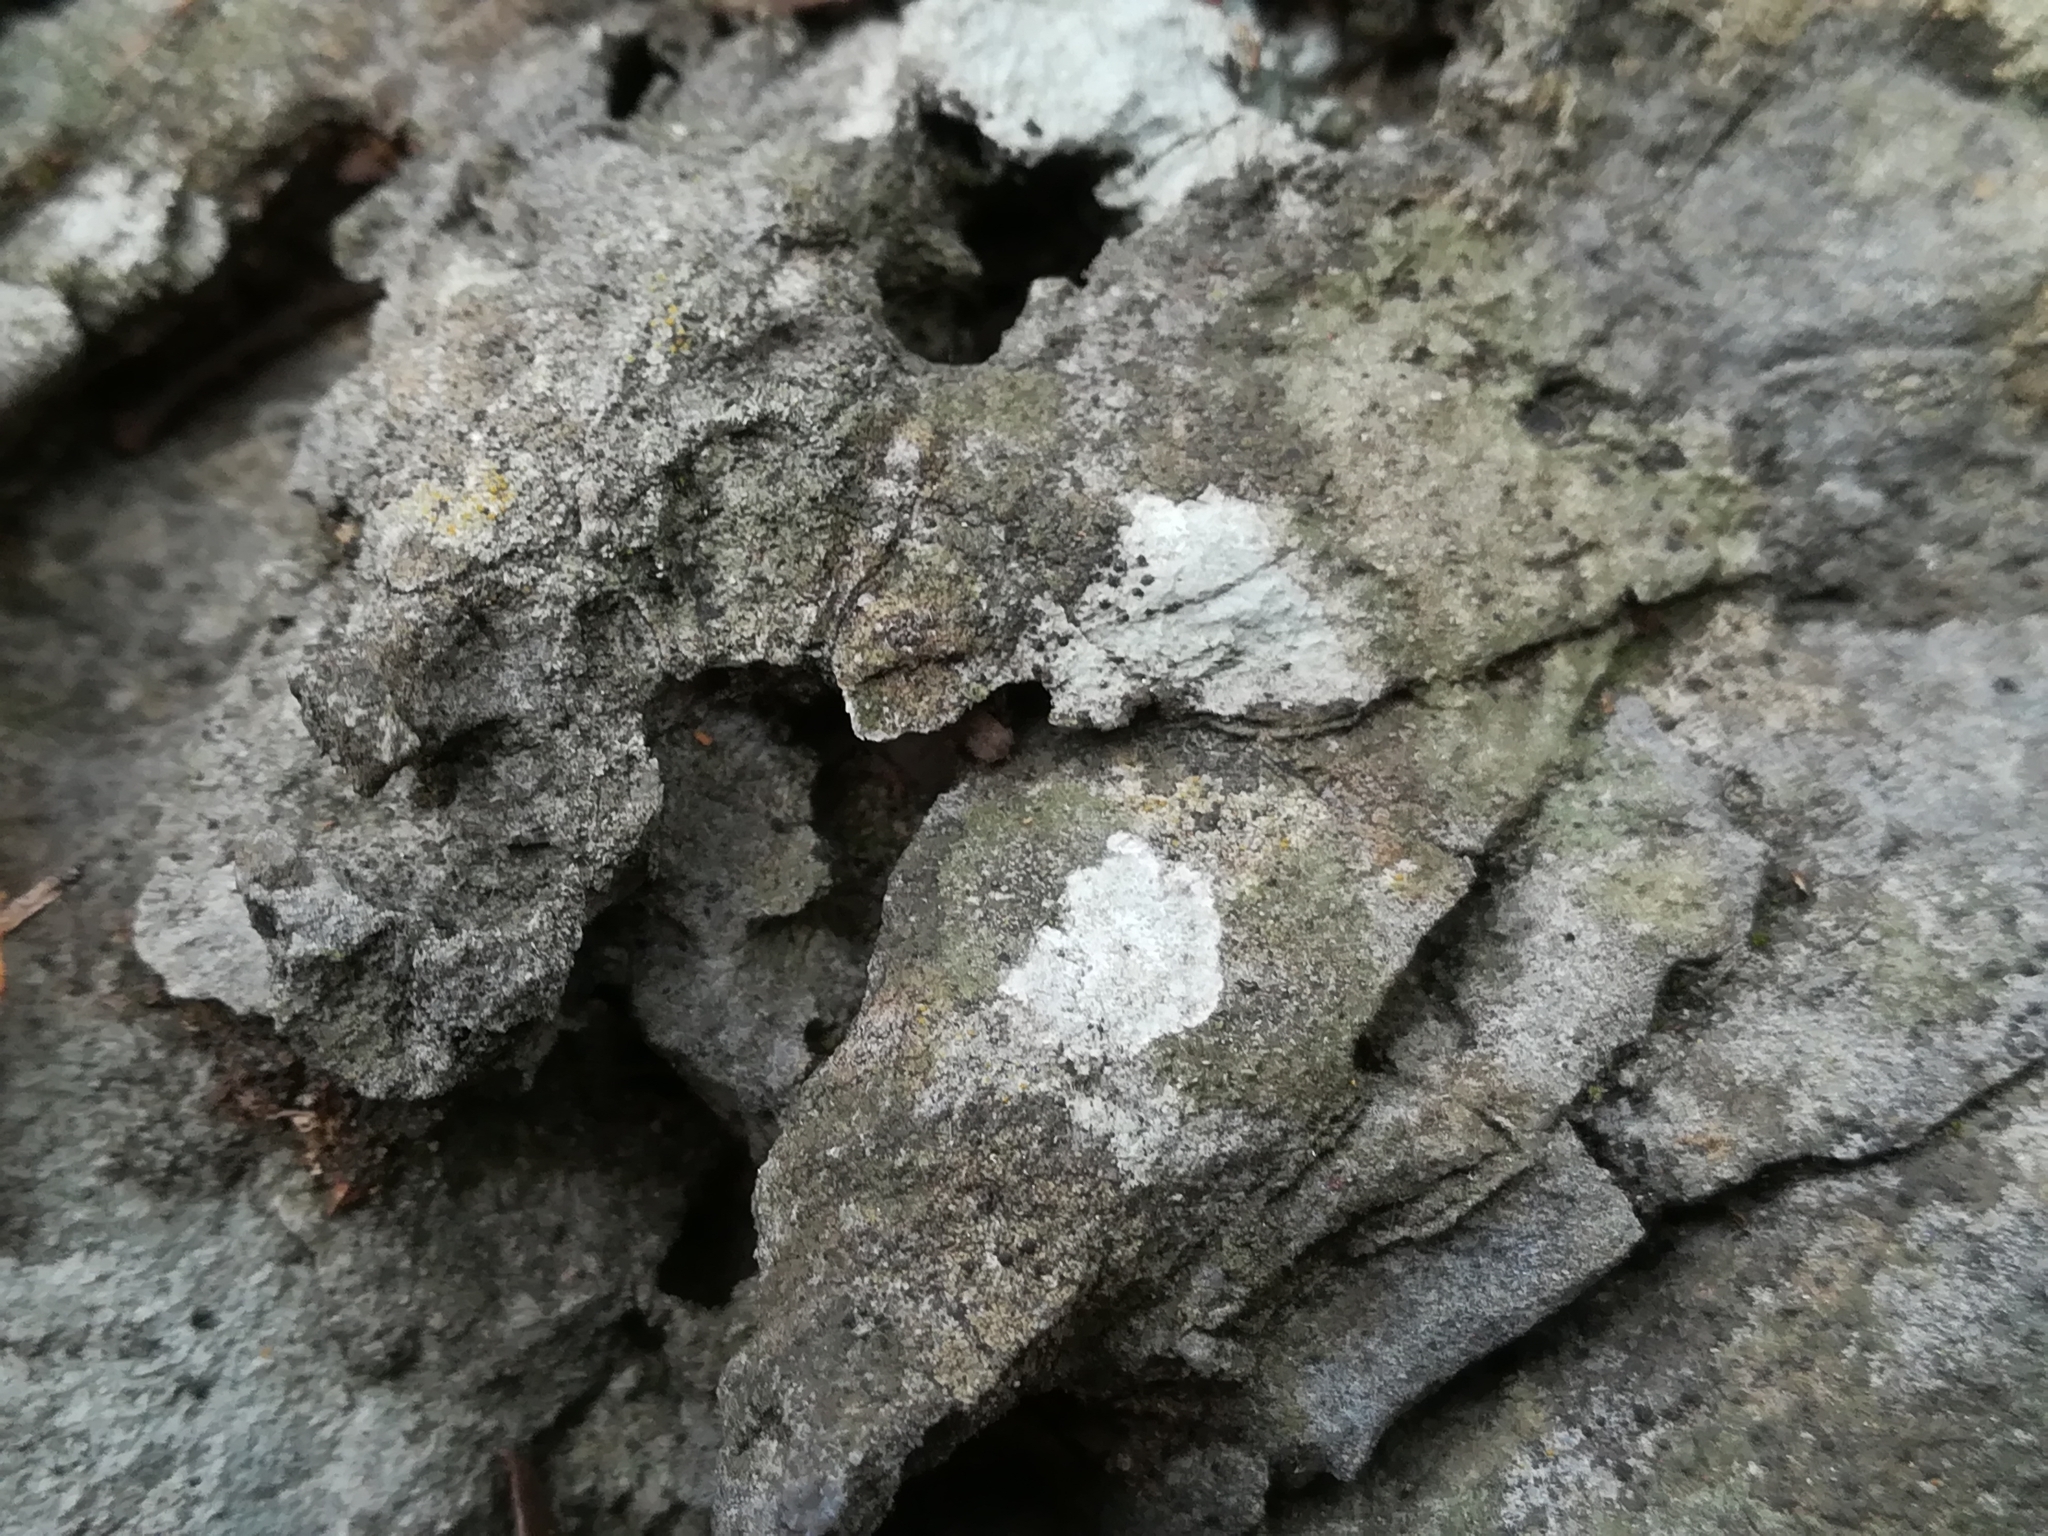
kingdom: Fungi
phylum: Ascomycota
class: Eurotiomycetes
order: Verrucariales
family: Verrucariaceae
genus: Bagliettoa
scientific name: Bagliettoa calciseda
